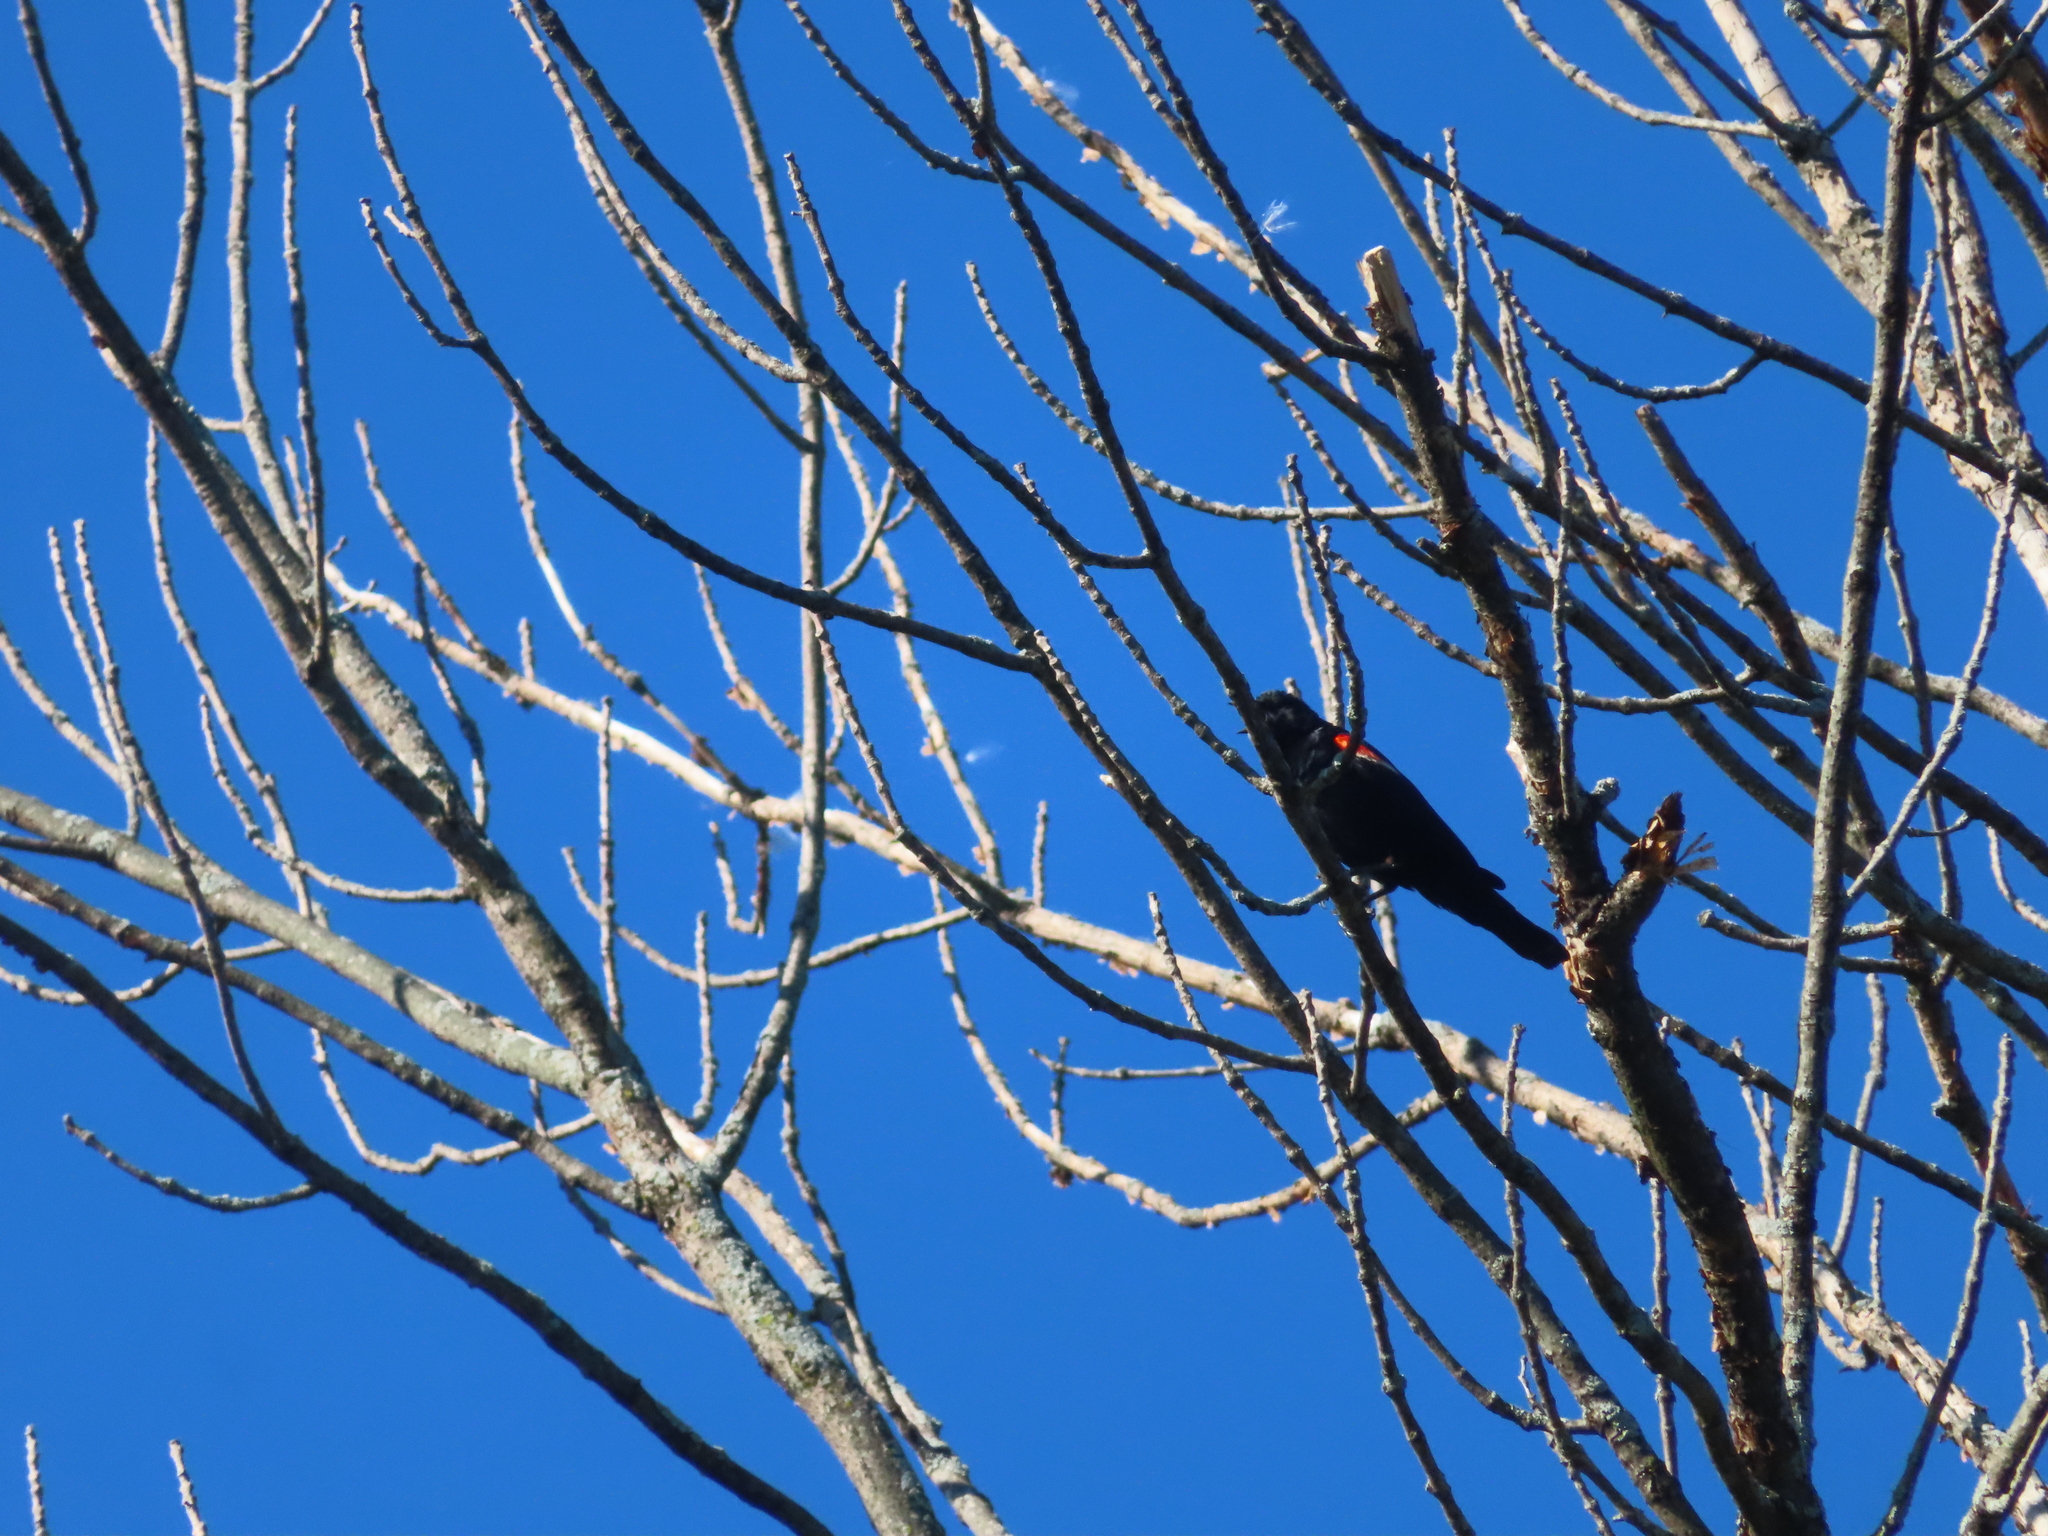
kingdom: Animalia
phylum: Chordata
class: Aves
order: Passeriformes
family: Icteridae
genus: Agelaius
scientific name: Agelaius phoeniceus
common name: Red-winged blackbird
